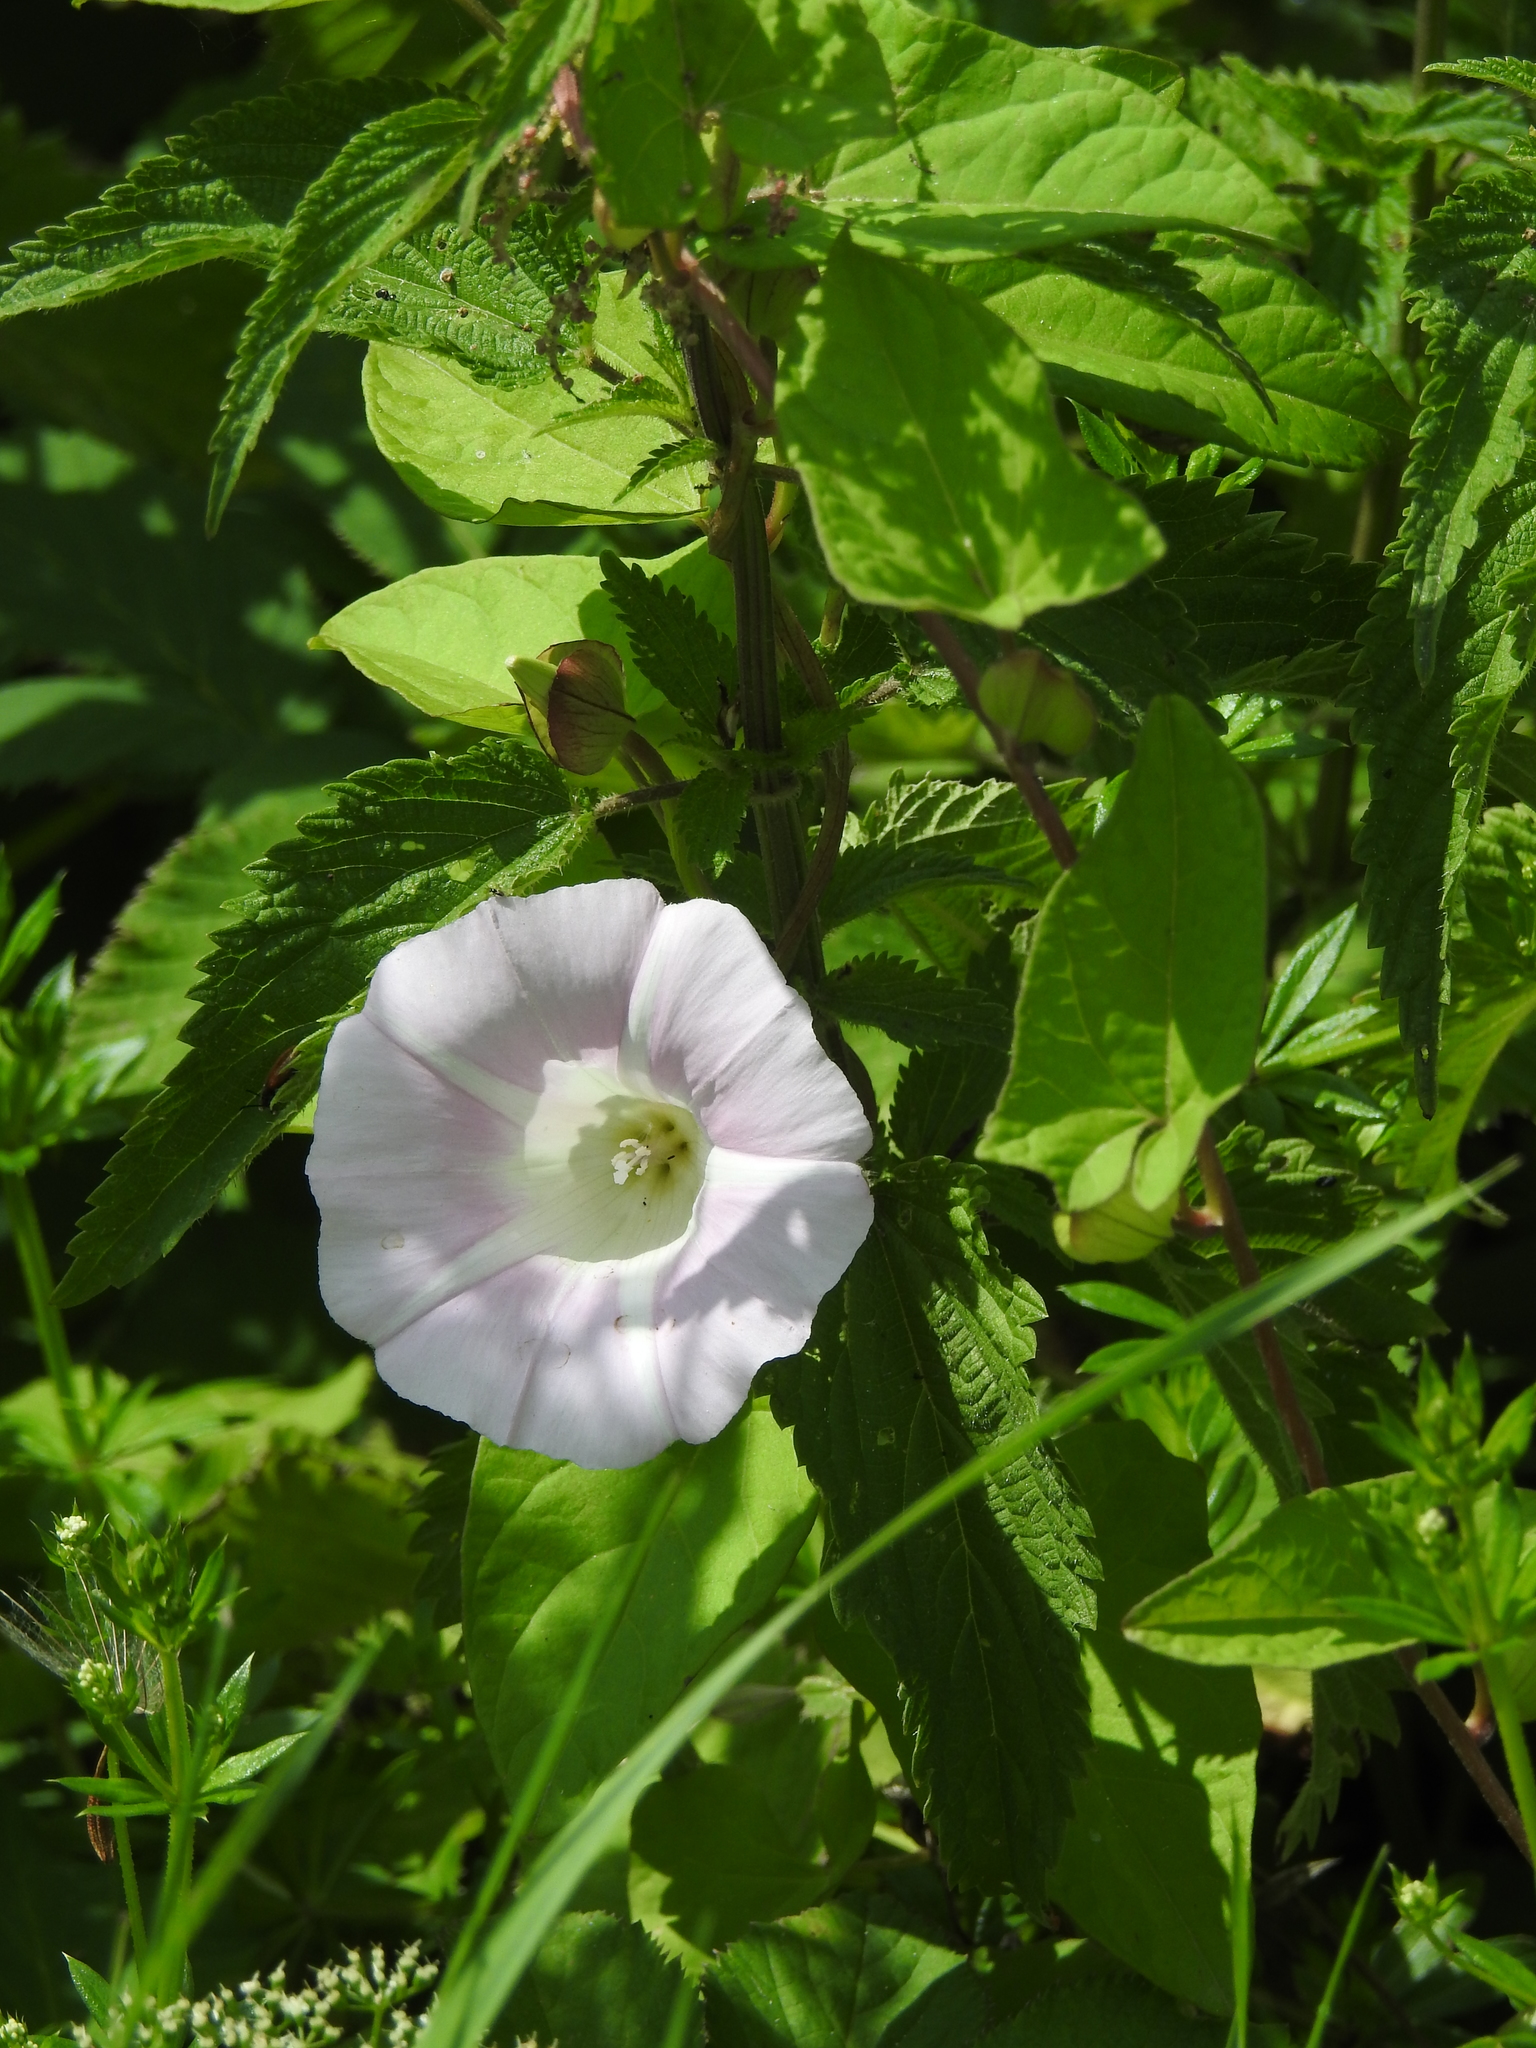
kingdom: Plantae
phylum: Tracheophyta
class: Magnoliopsida
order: Solanales
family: Convolvulaceae
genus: Calystegia
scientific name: Calystegia sepium
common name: Hedge bindweed
